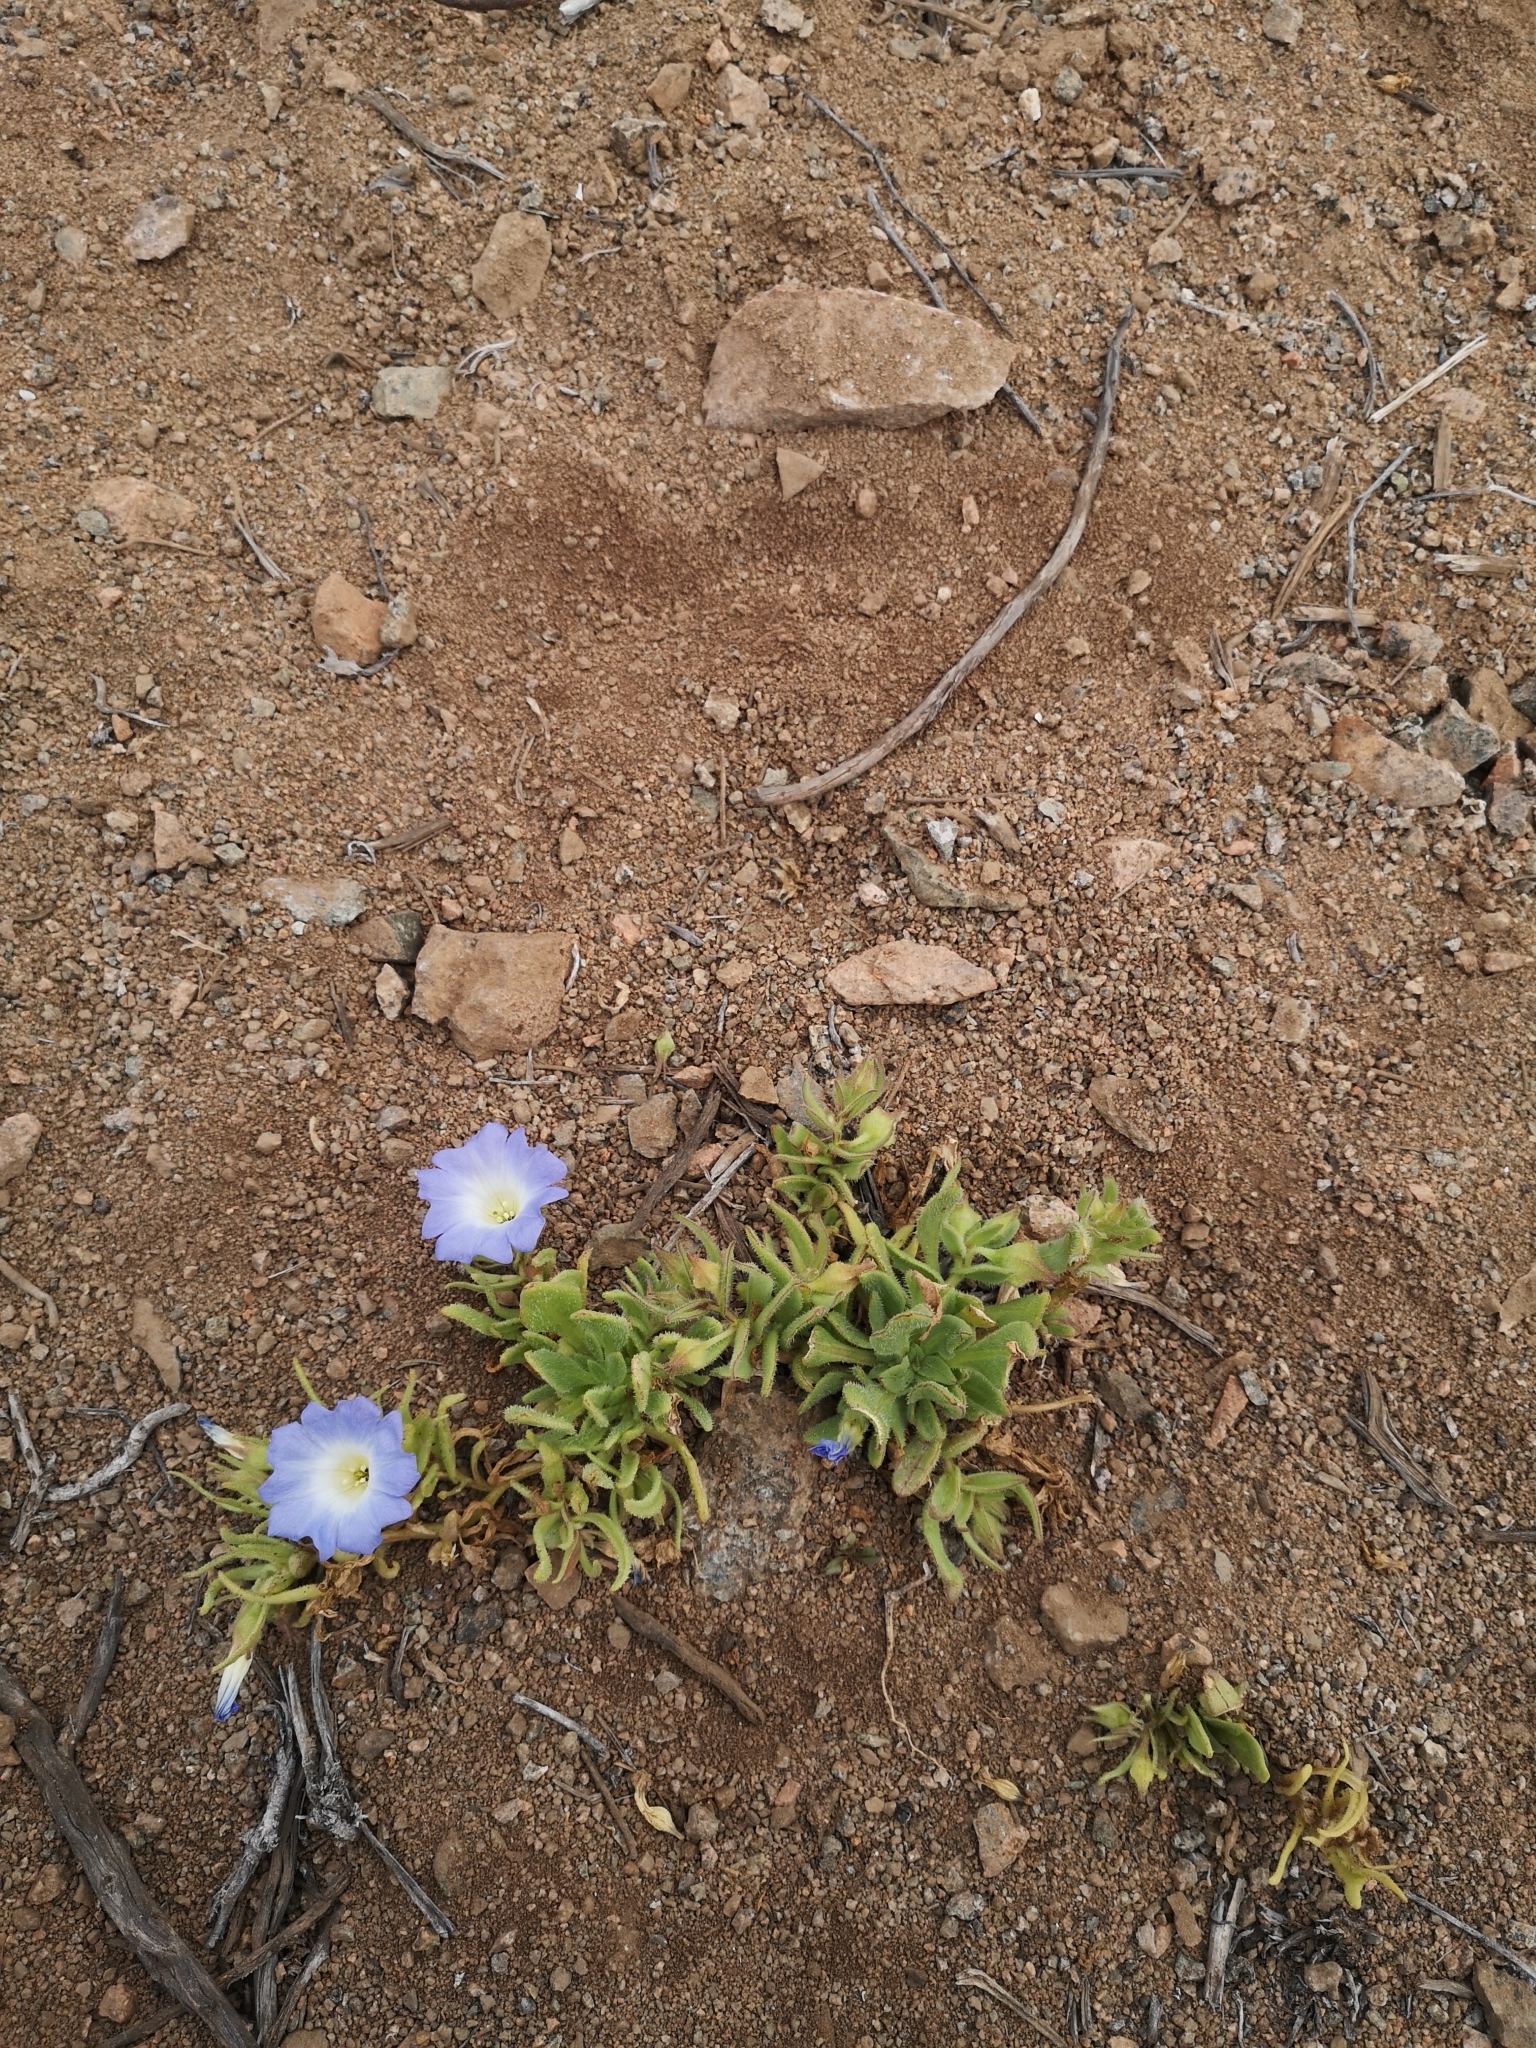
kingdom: Plantae
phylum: Tracheophyta
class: Magnoliopsida
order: Solanales
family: Solanaceae
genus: Nolana
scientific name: Nolana elegans
